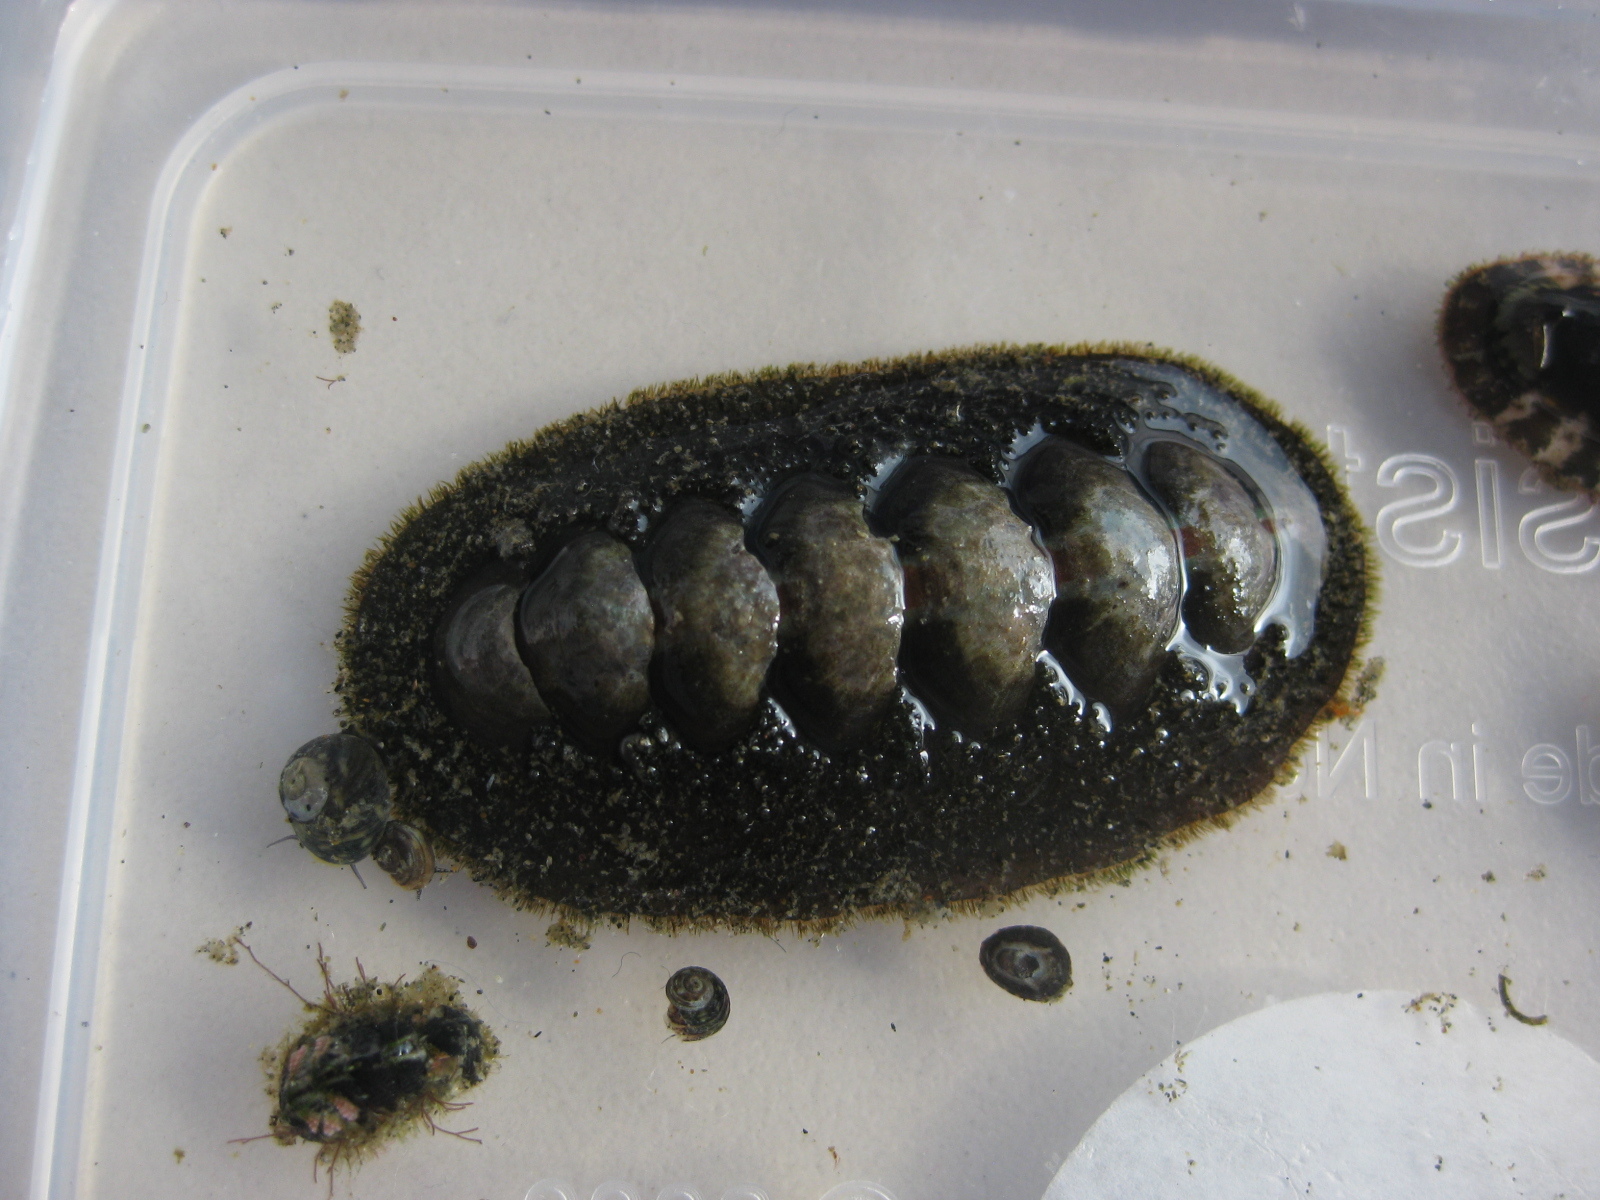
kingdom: Animalia
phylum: Mollusca
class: Polyplacophora
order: Chitonida
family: Mopaliidae
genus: Plaxiphora
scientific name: Plaxiphora obtecta
